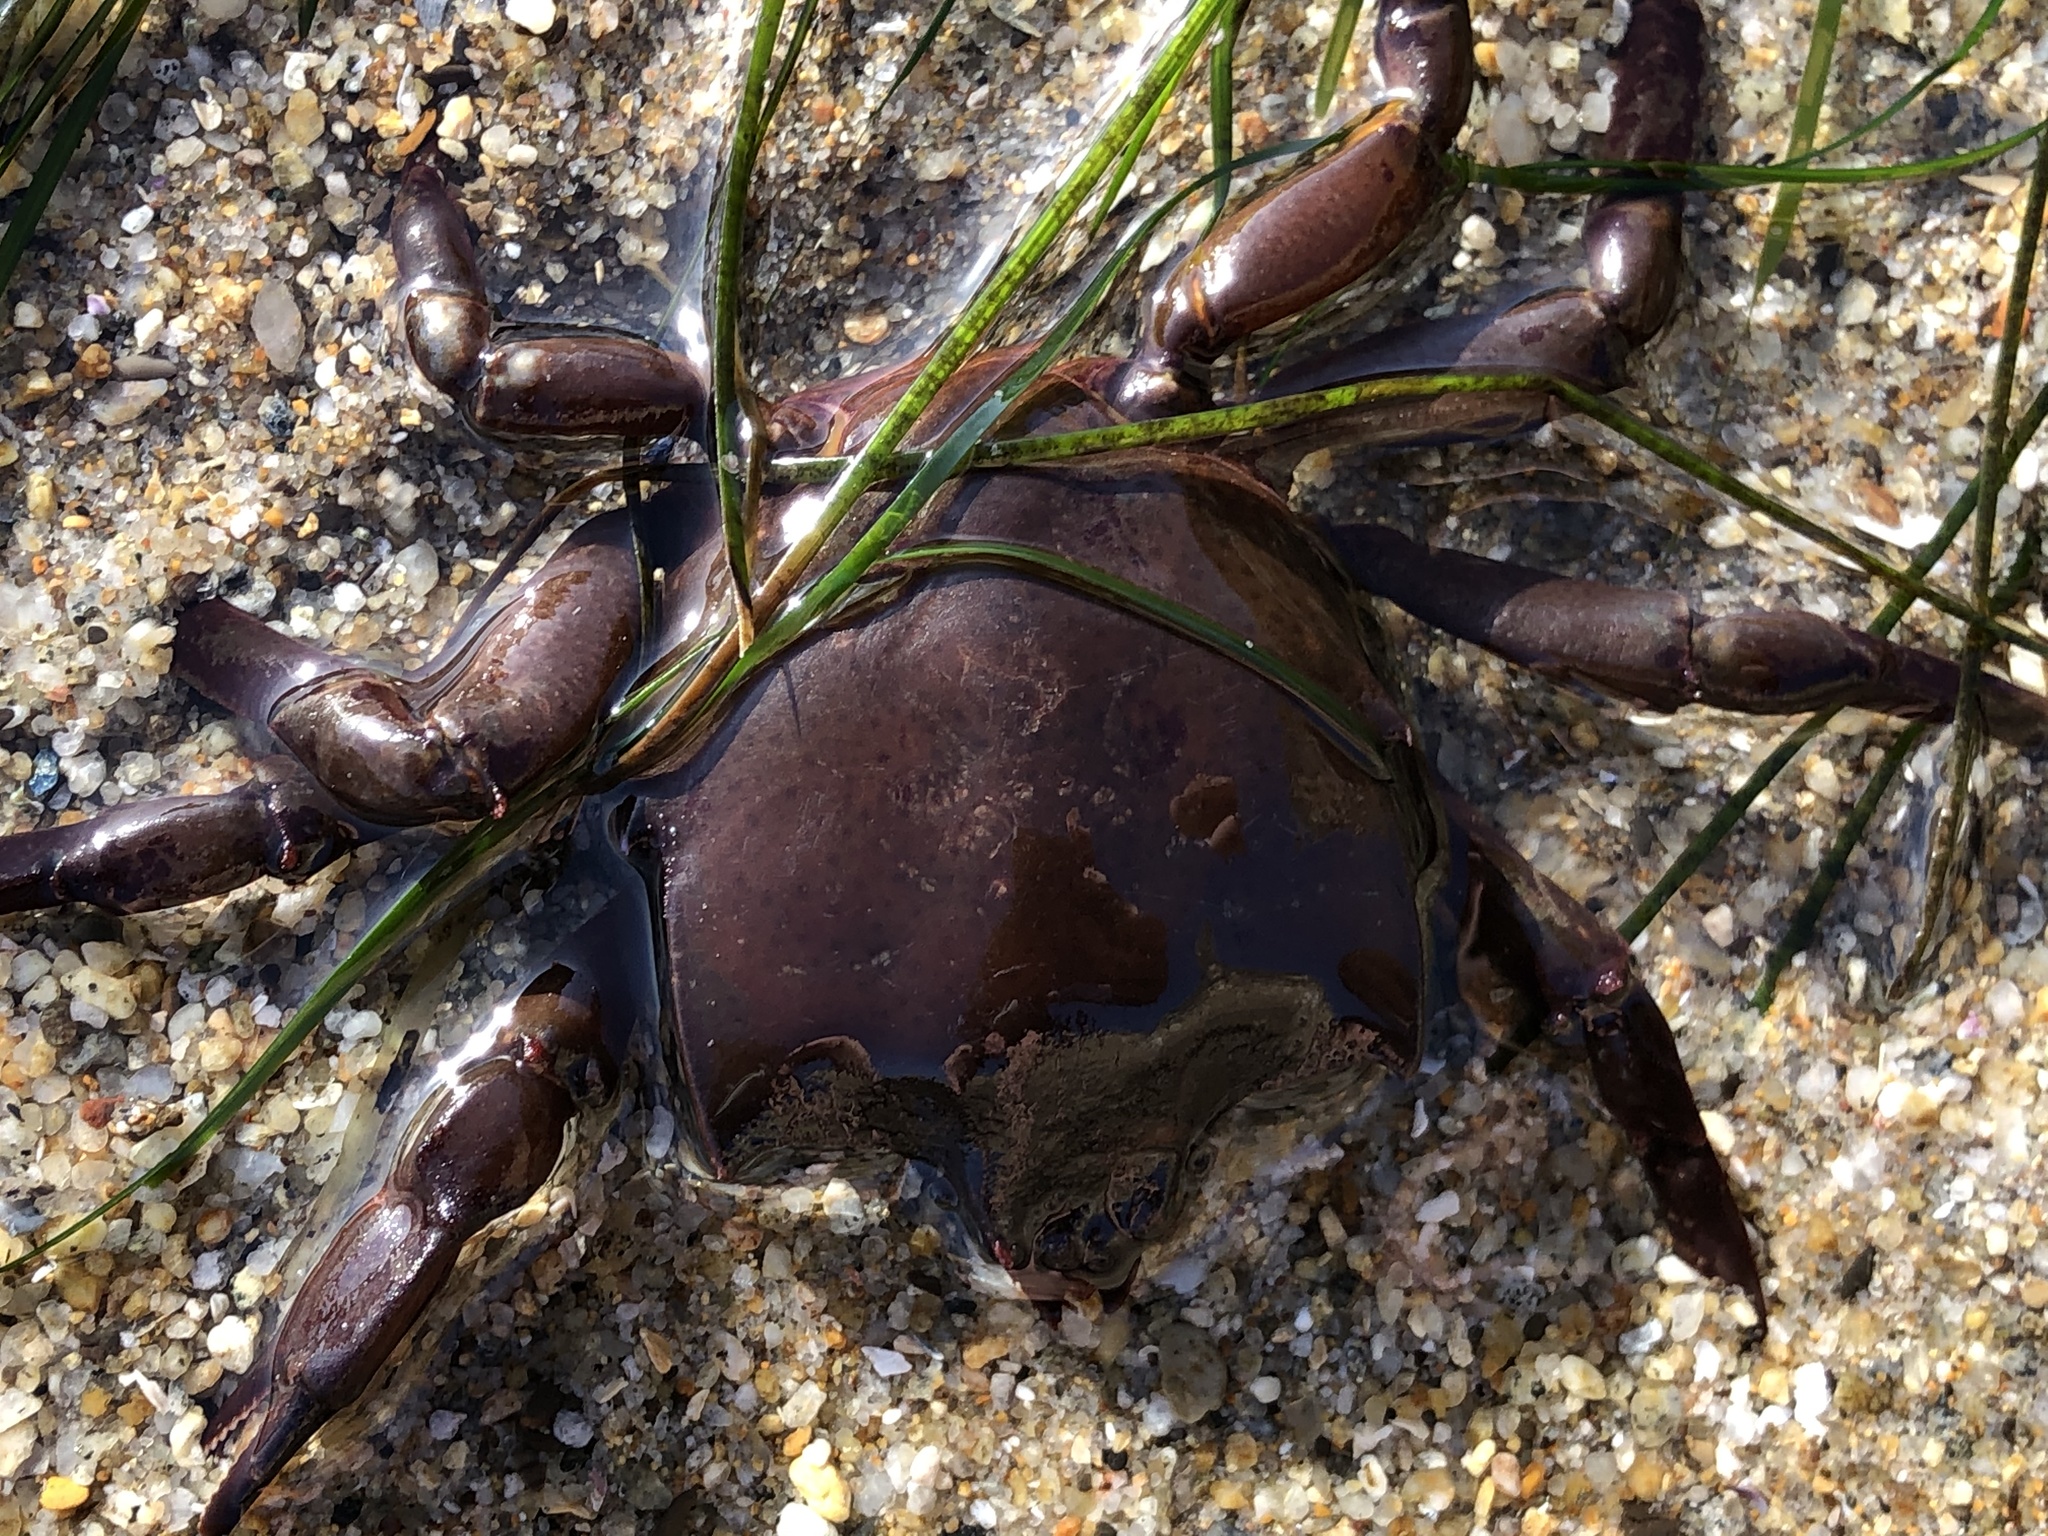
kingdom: Animalia
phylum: Arthropoda
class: Malacostraca
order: Decapoda
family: Epialtidae
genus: Pugettia
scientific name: Pugettia producta
